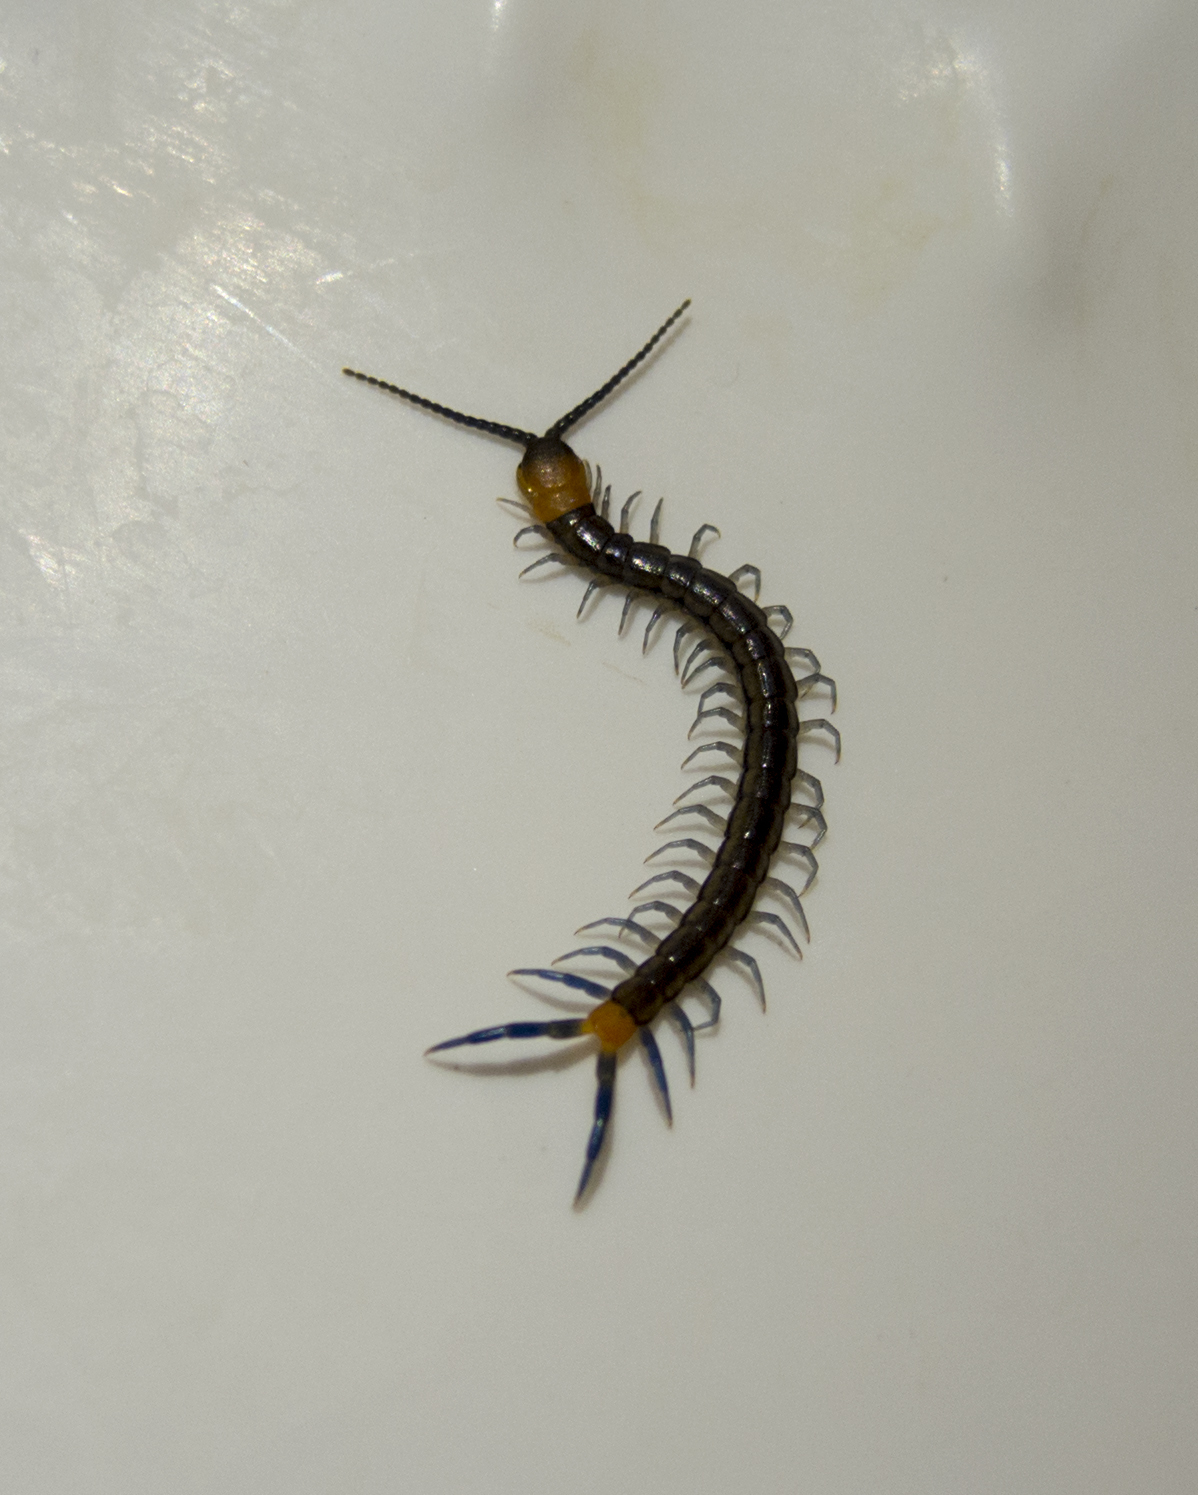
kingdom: Animalia
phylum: Arthropoda
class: Chilopoda
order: Scolopendromorpha
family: Scolopendridae
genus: Scolopendra
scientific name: Scolopendra cingulata
